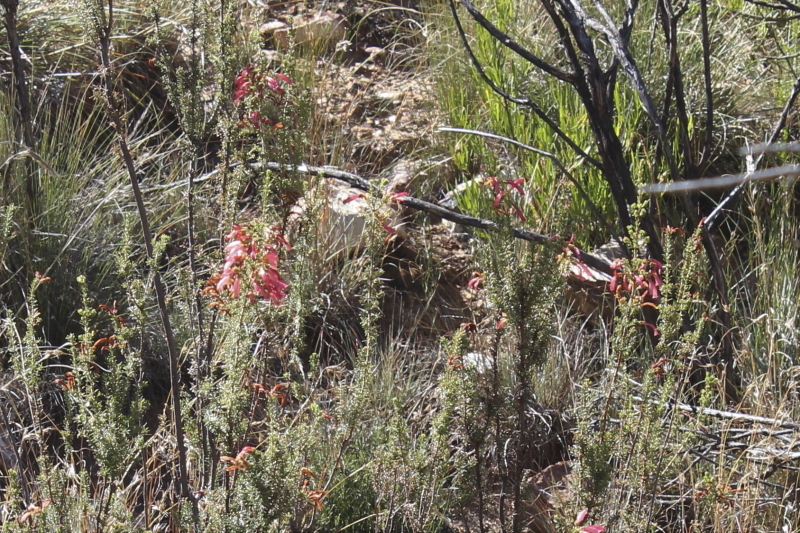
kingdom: Plantae
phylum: Tracheophyta
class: Magnoliopsida
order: Ericales
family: Ericaceae
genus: Erica
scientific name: Erica curviflora
